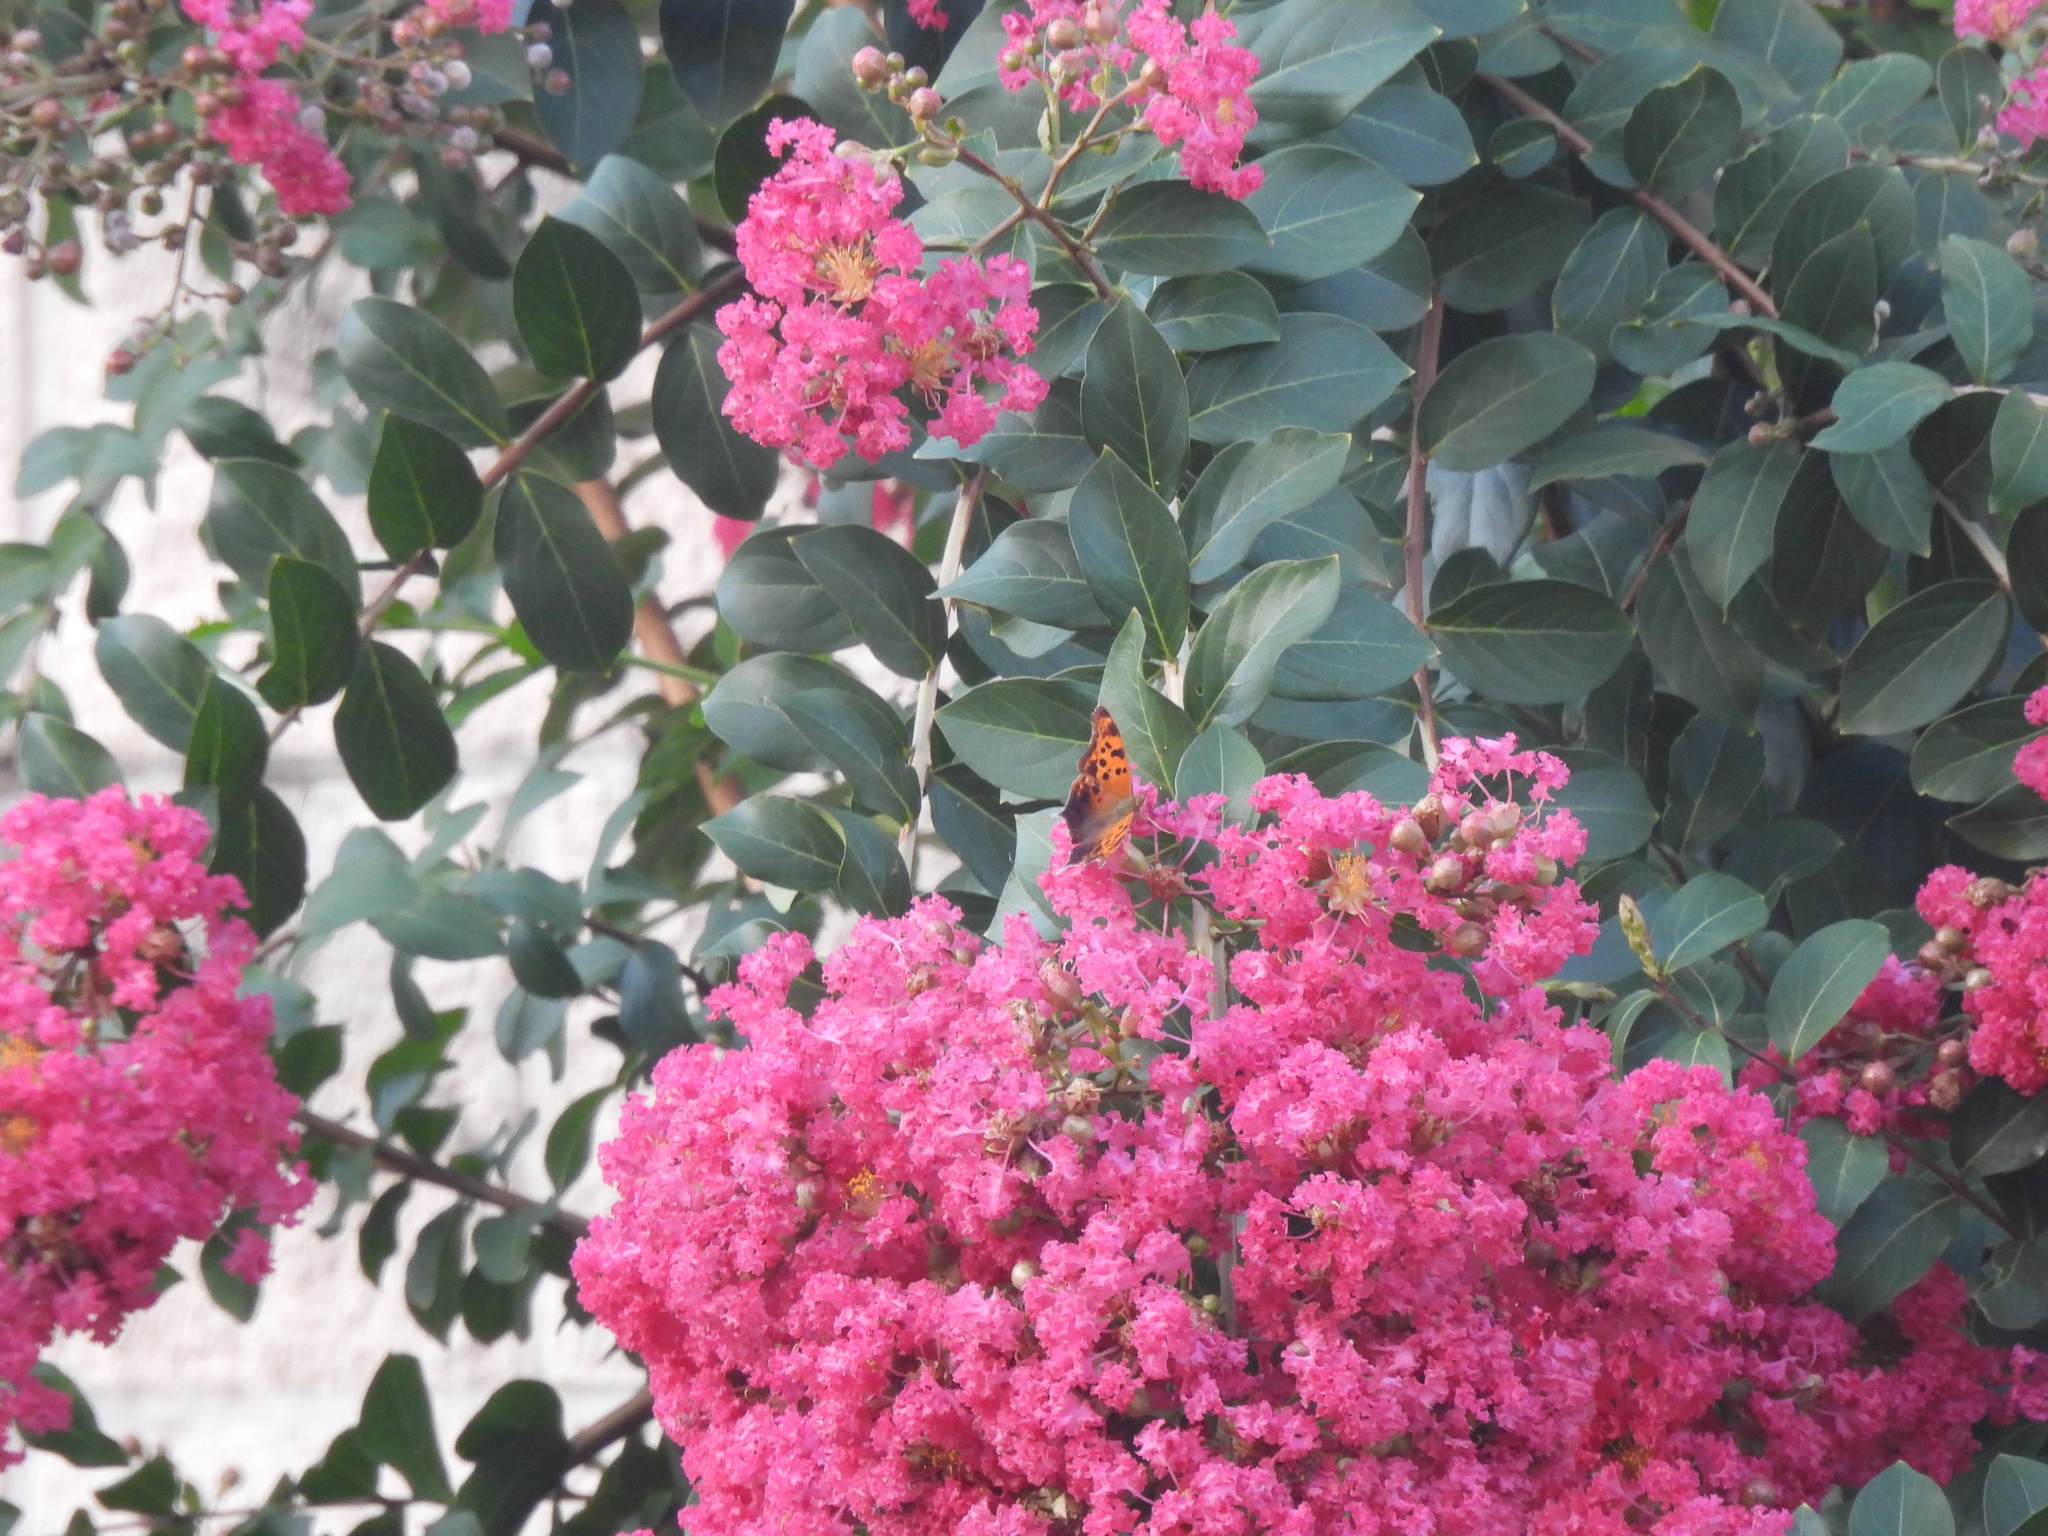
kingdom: Animalia
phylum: Arthropoda
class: Insecta
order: Lepidoptera
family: Nymphalidae
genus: Polygonia
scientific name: Polygonia interrogationis
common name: Question mark
